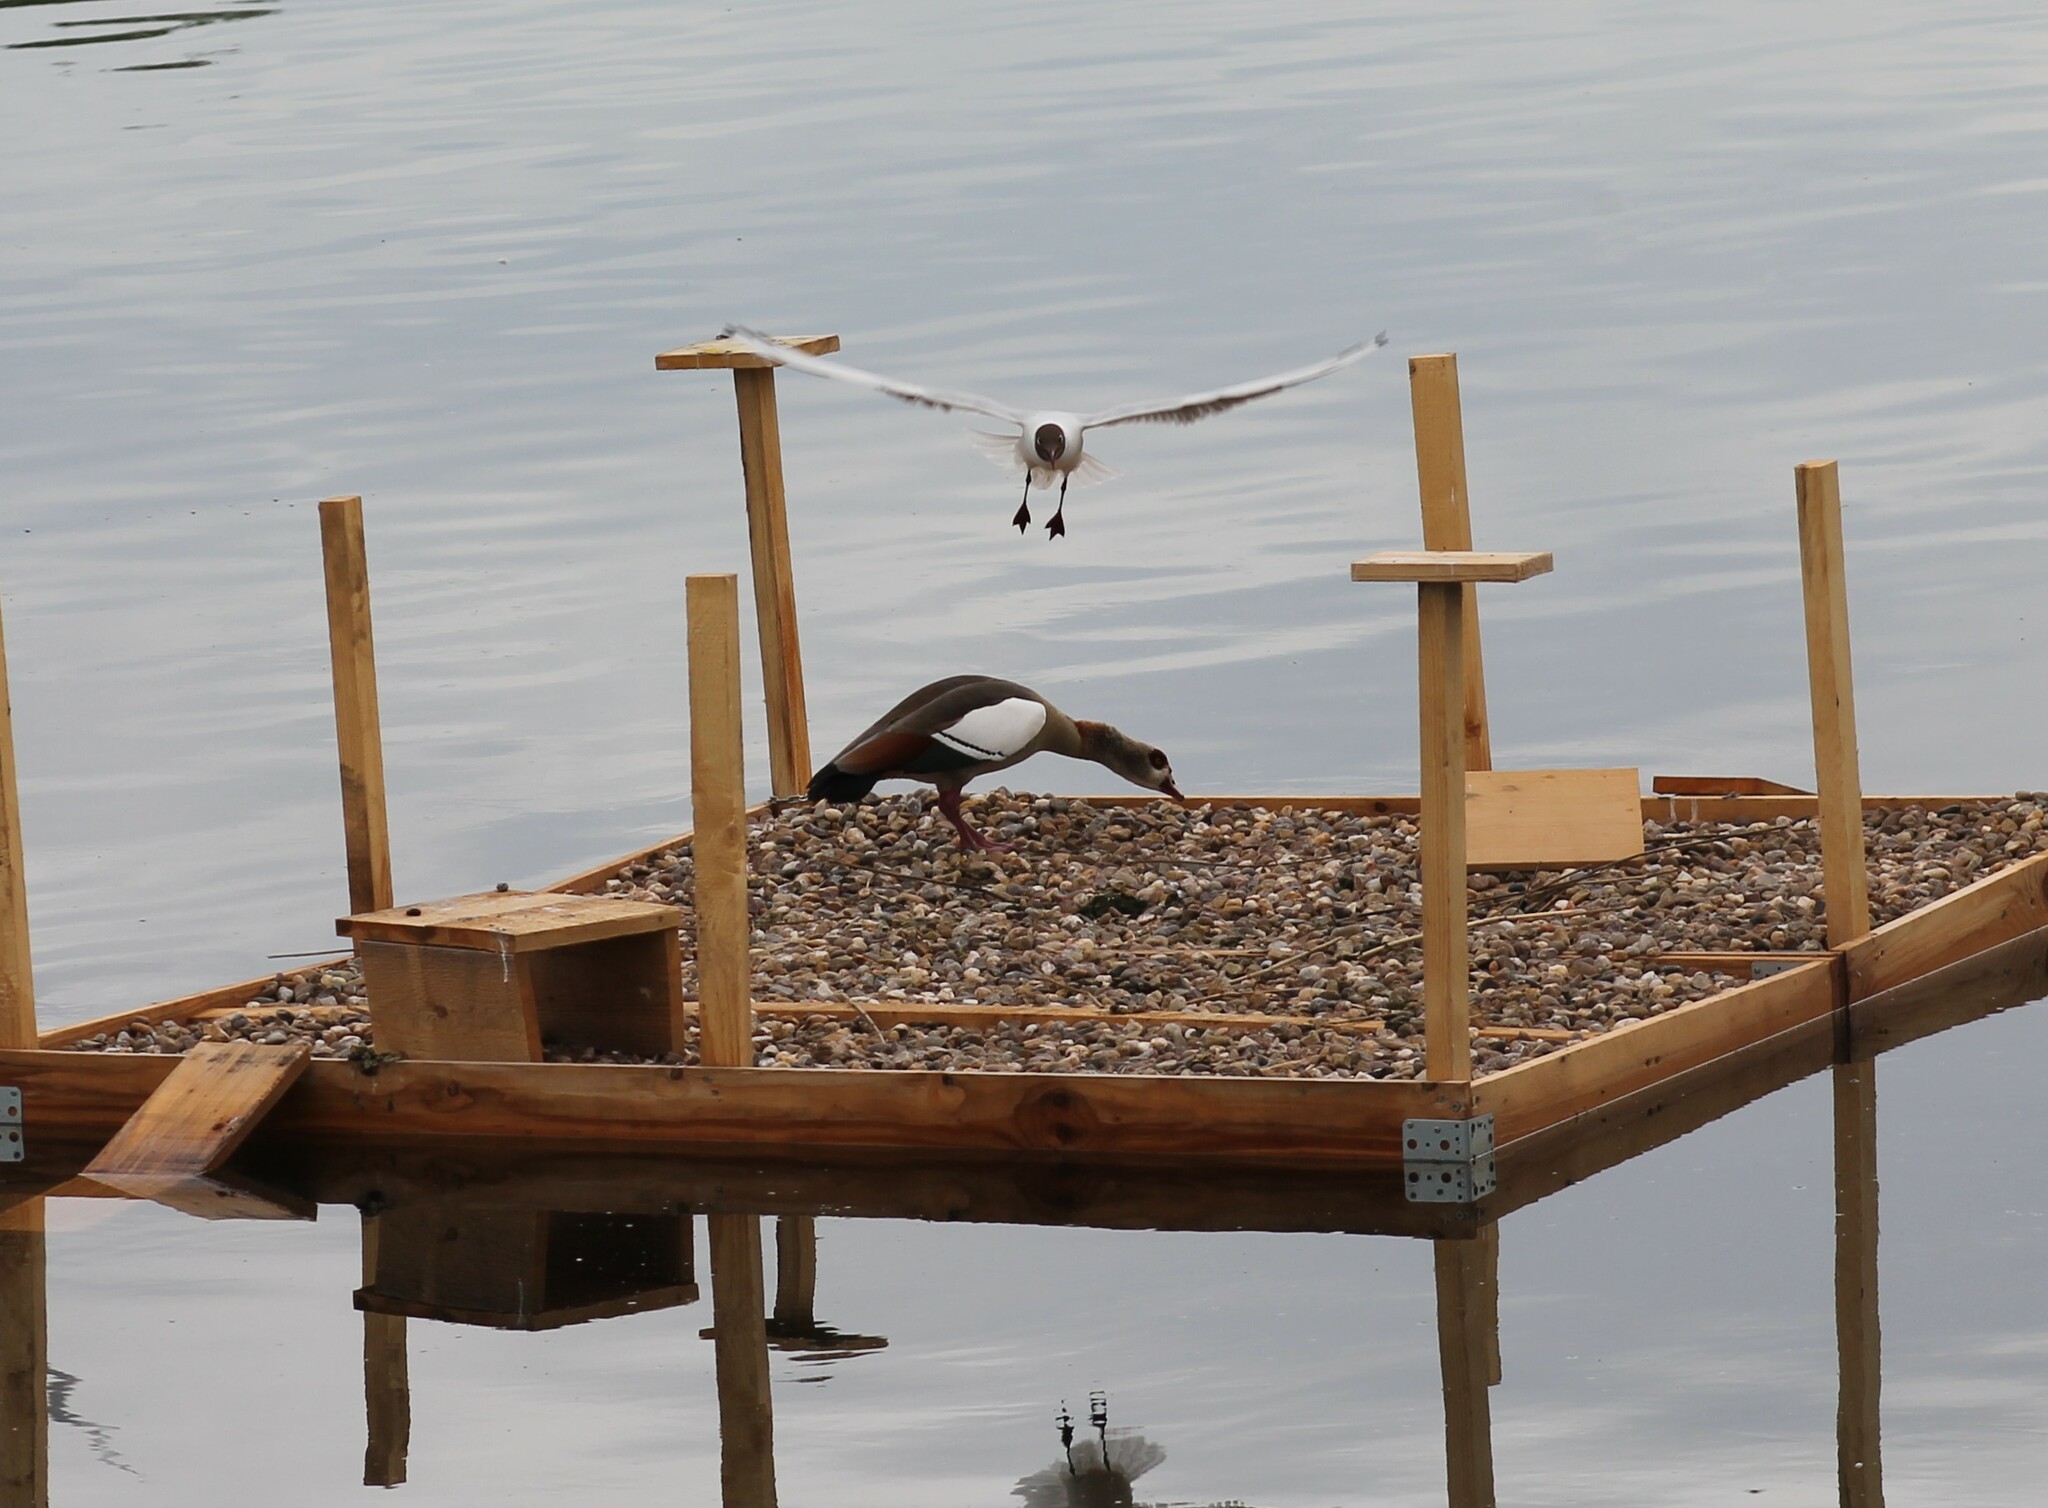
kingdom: Animalia
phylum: Chordata
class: Aves
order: Anseriformes
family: Anatidae
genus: Alopochen
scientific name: Alopochen aegyptiaca
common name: Egyptian goose
